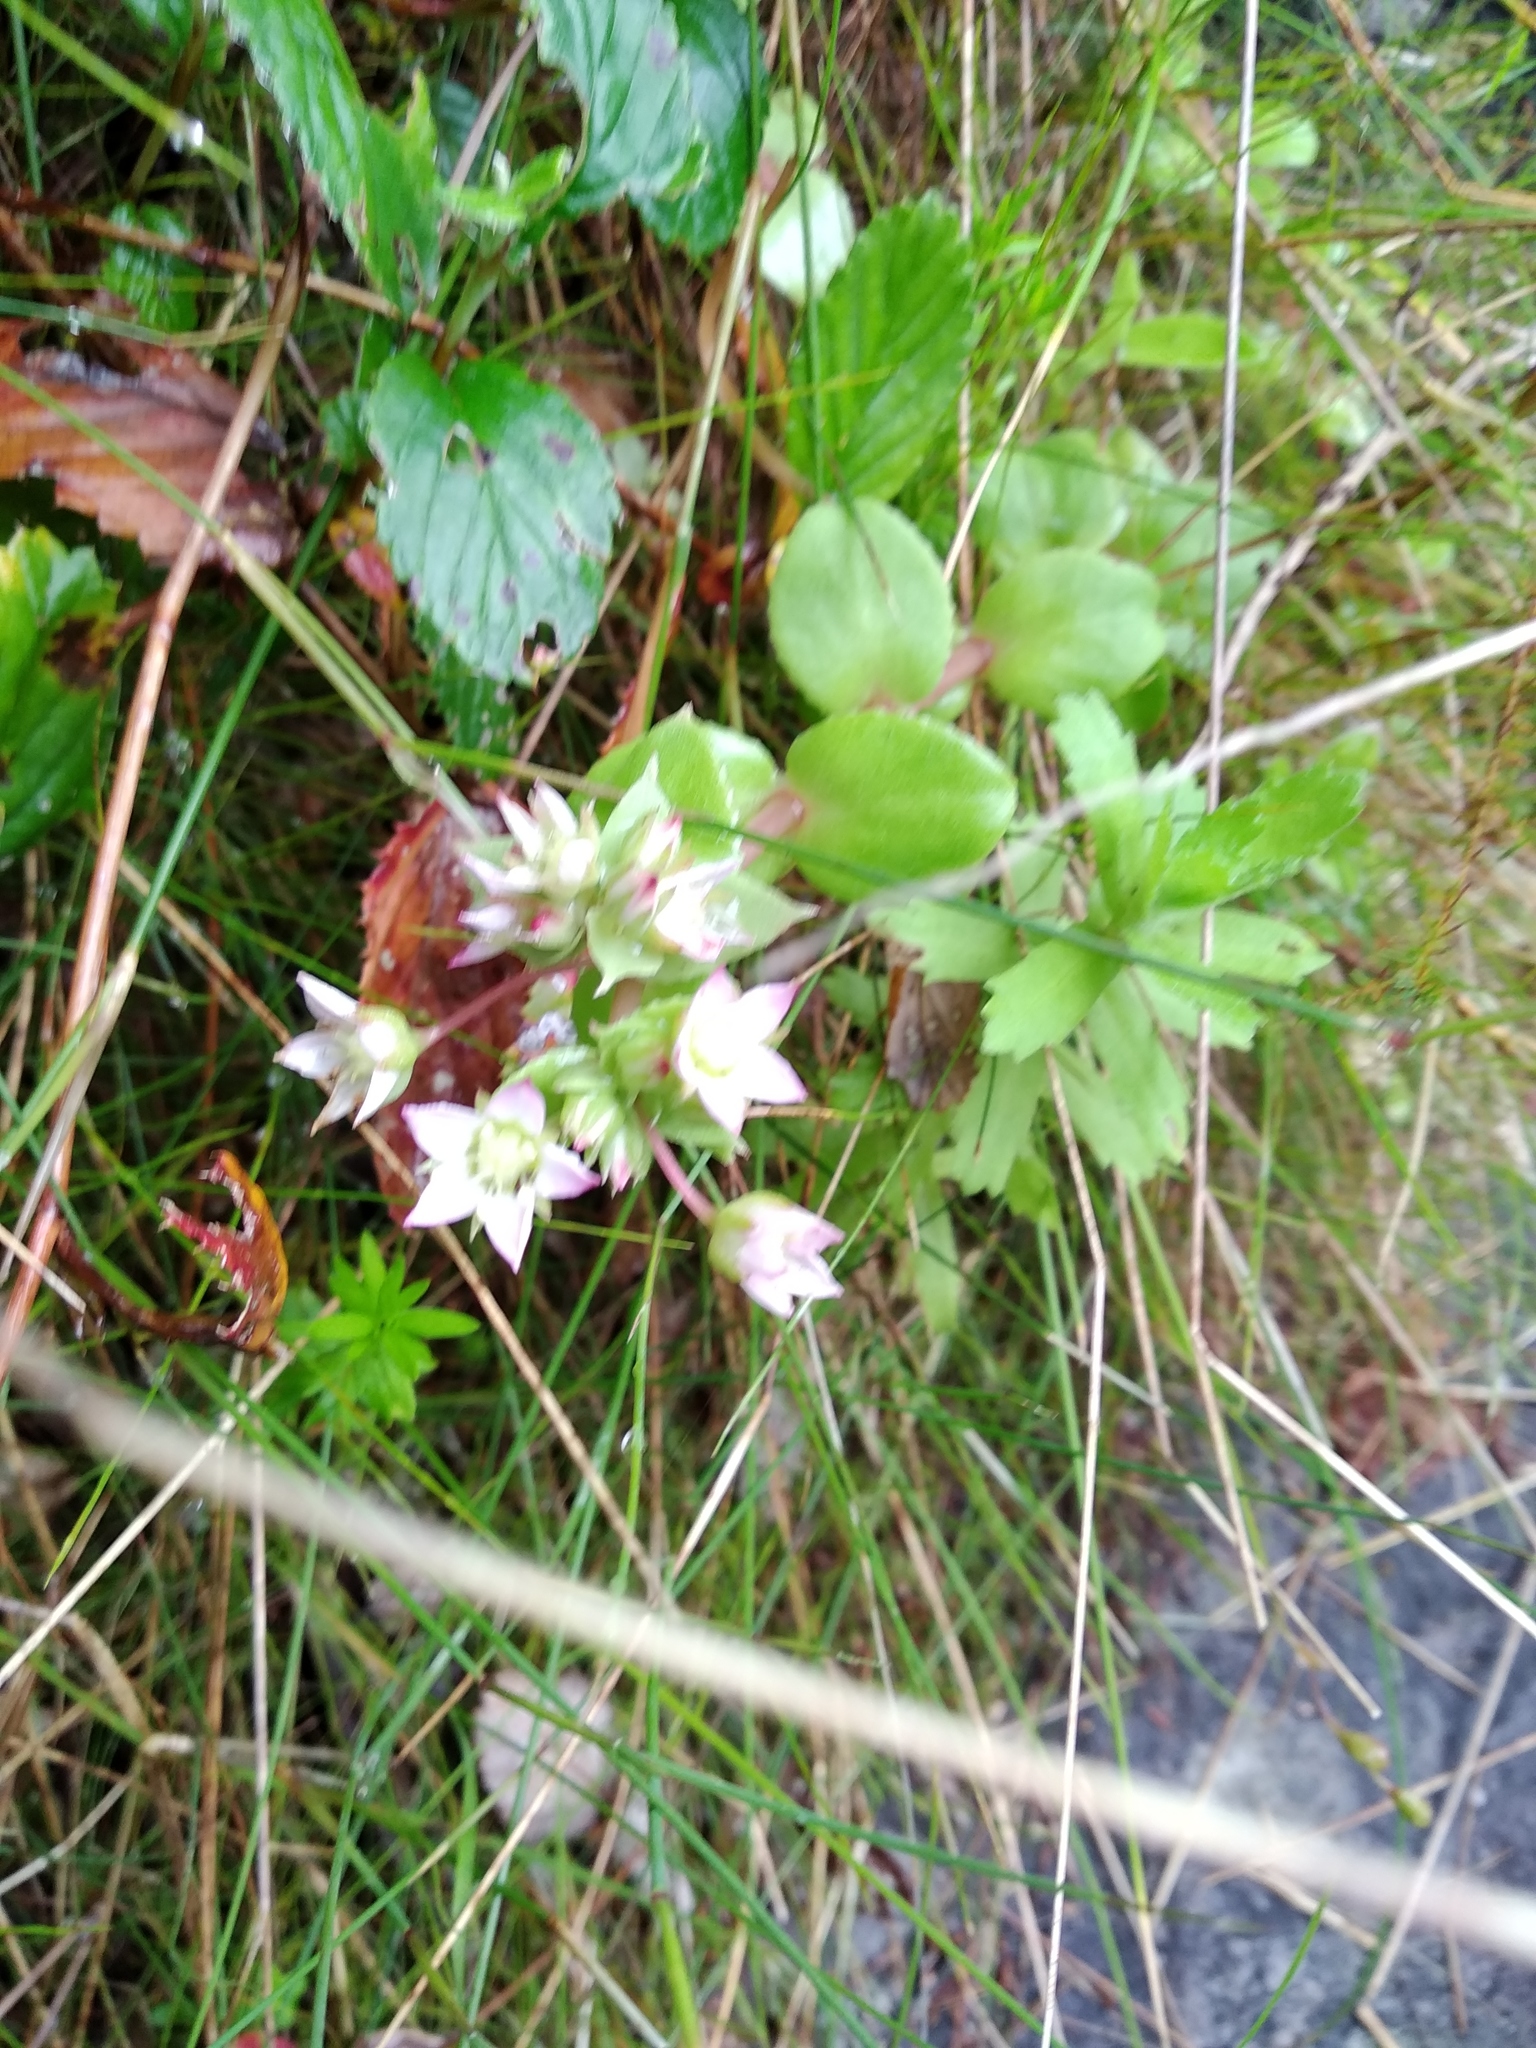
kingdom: Plantae
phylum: Tracheophyta
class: Magnoliopsida
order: Saxifragales
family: Crassulaceae
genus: Crassula
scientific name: Crassula pellucida
